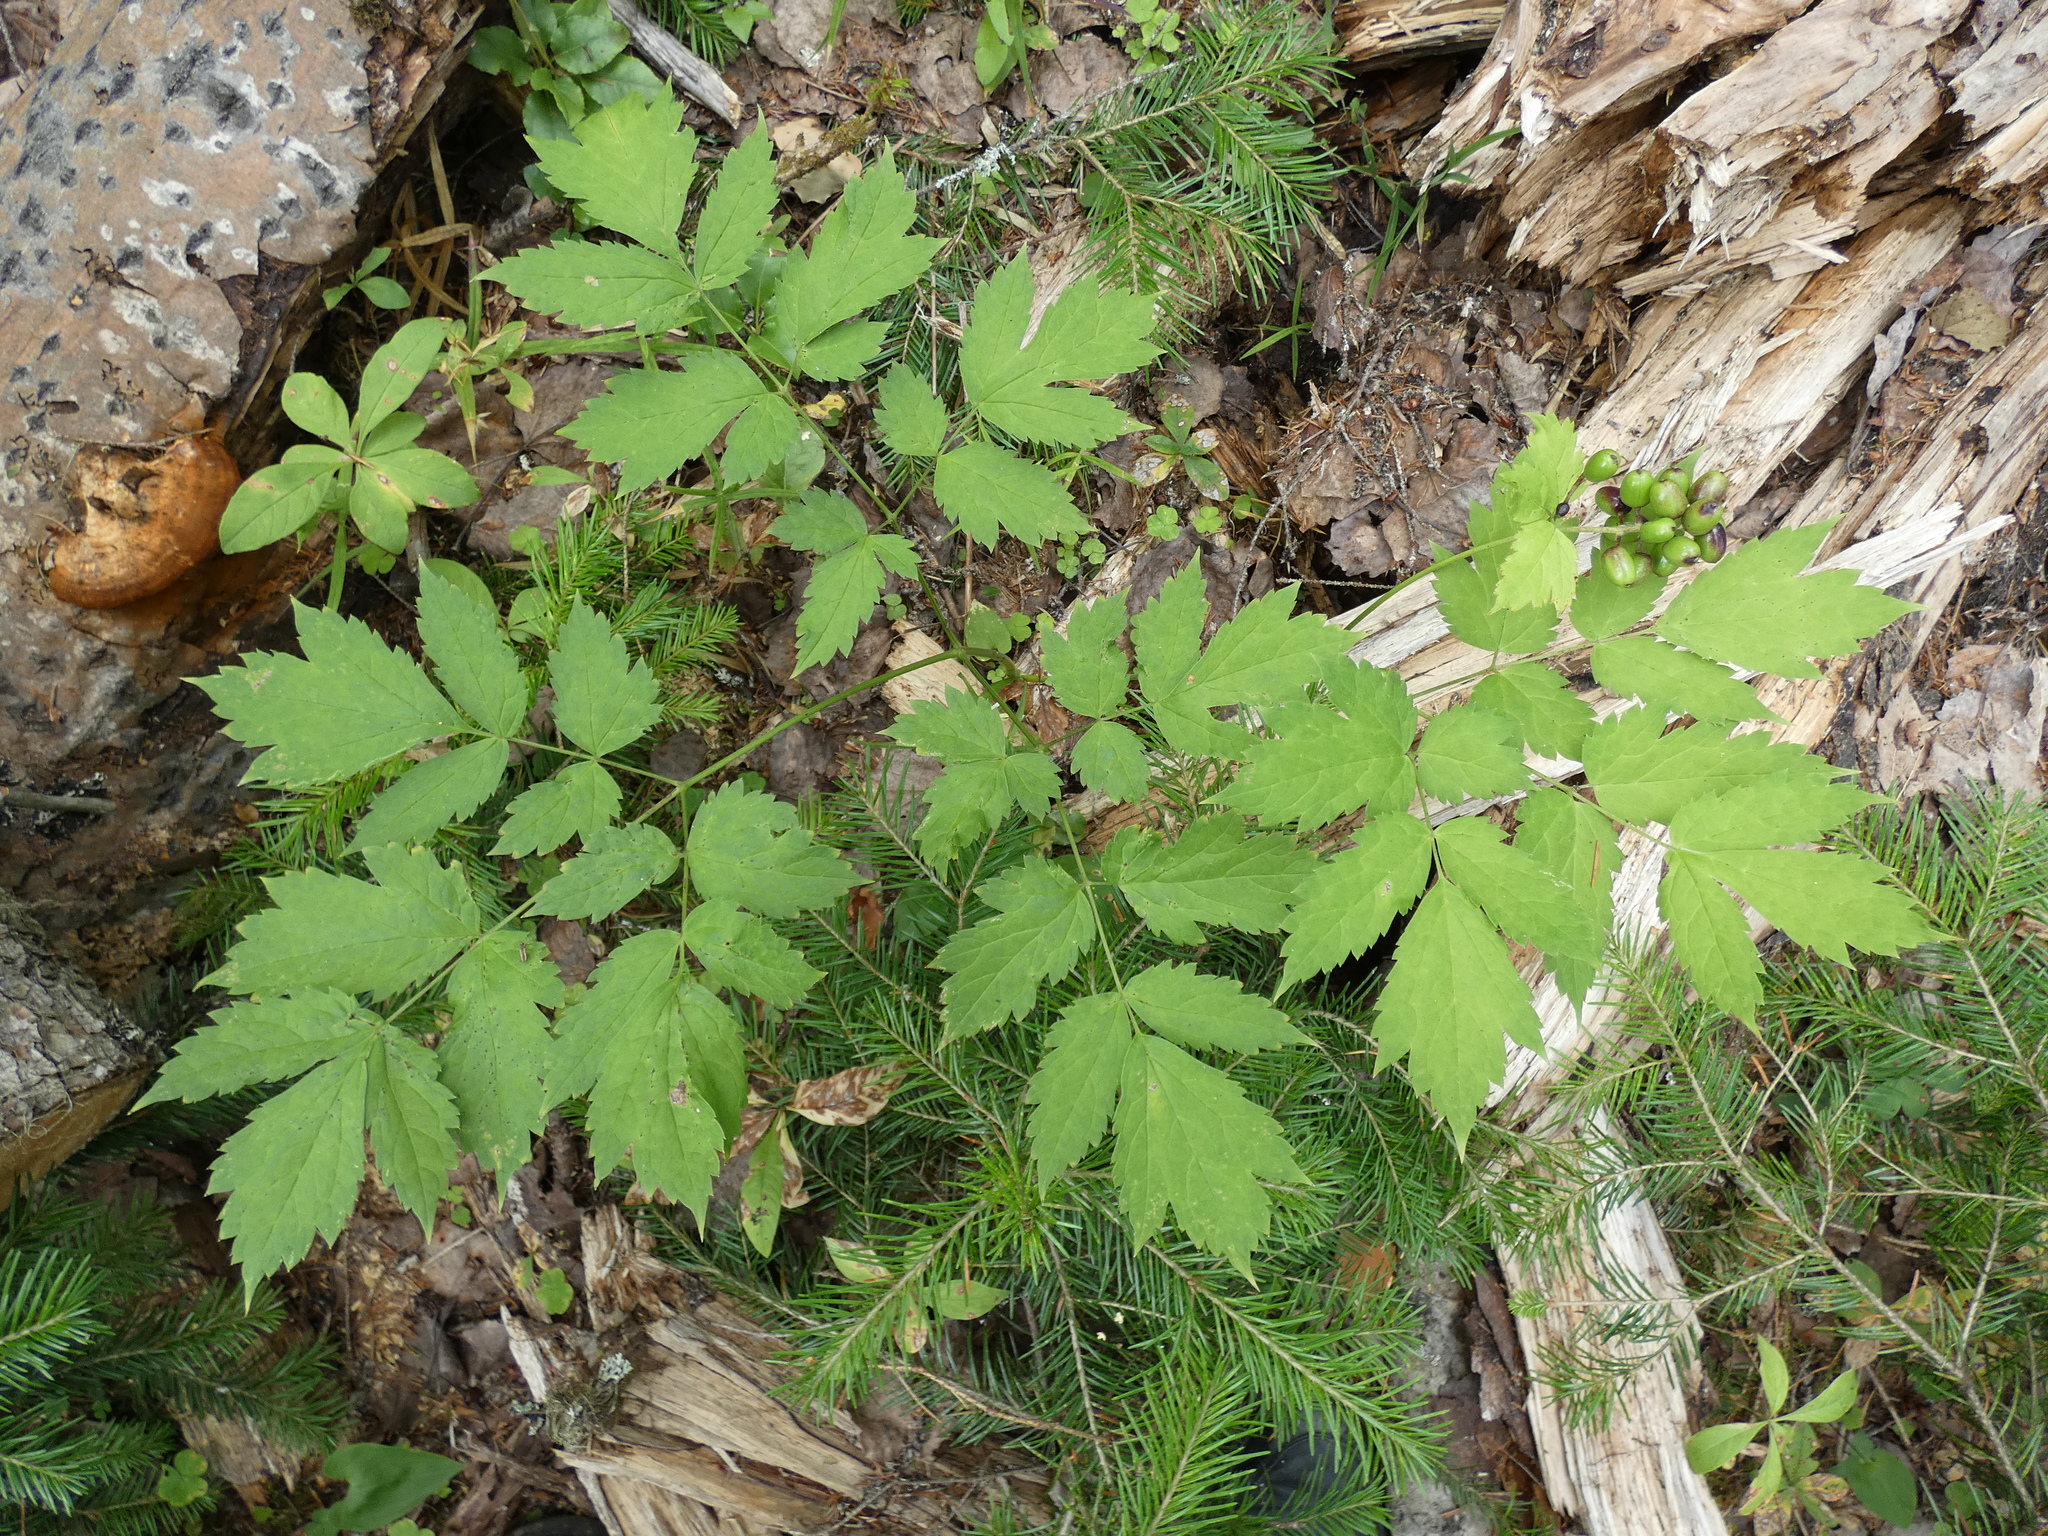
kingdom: Plantae
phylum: Tracheophyta
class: Magnoliopsida
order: Ranunculales
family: Ranunculaceae
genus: Actaea
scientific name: Actaea erythrocarpa
